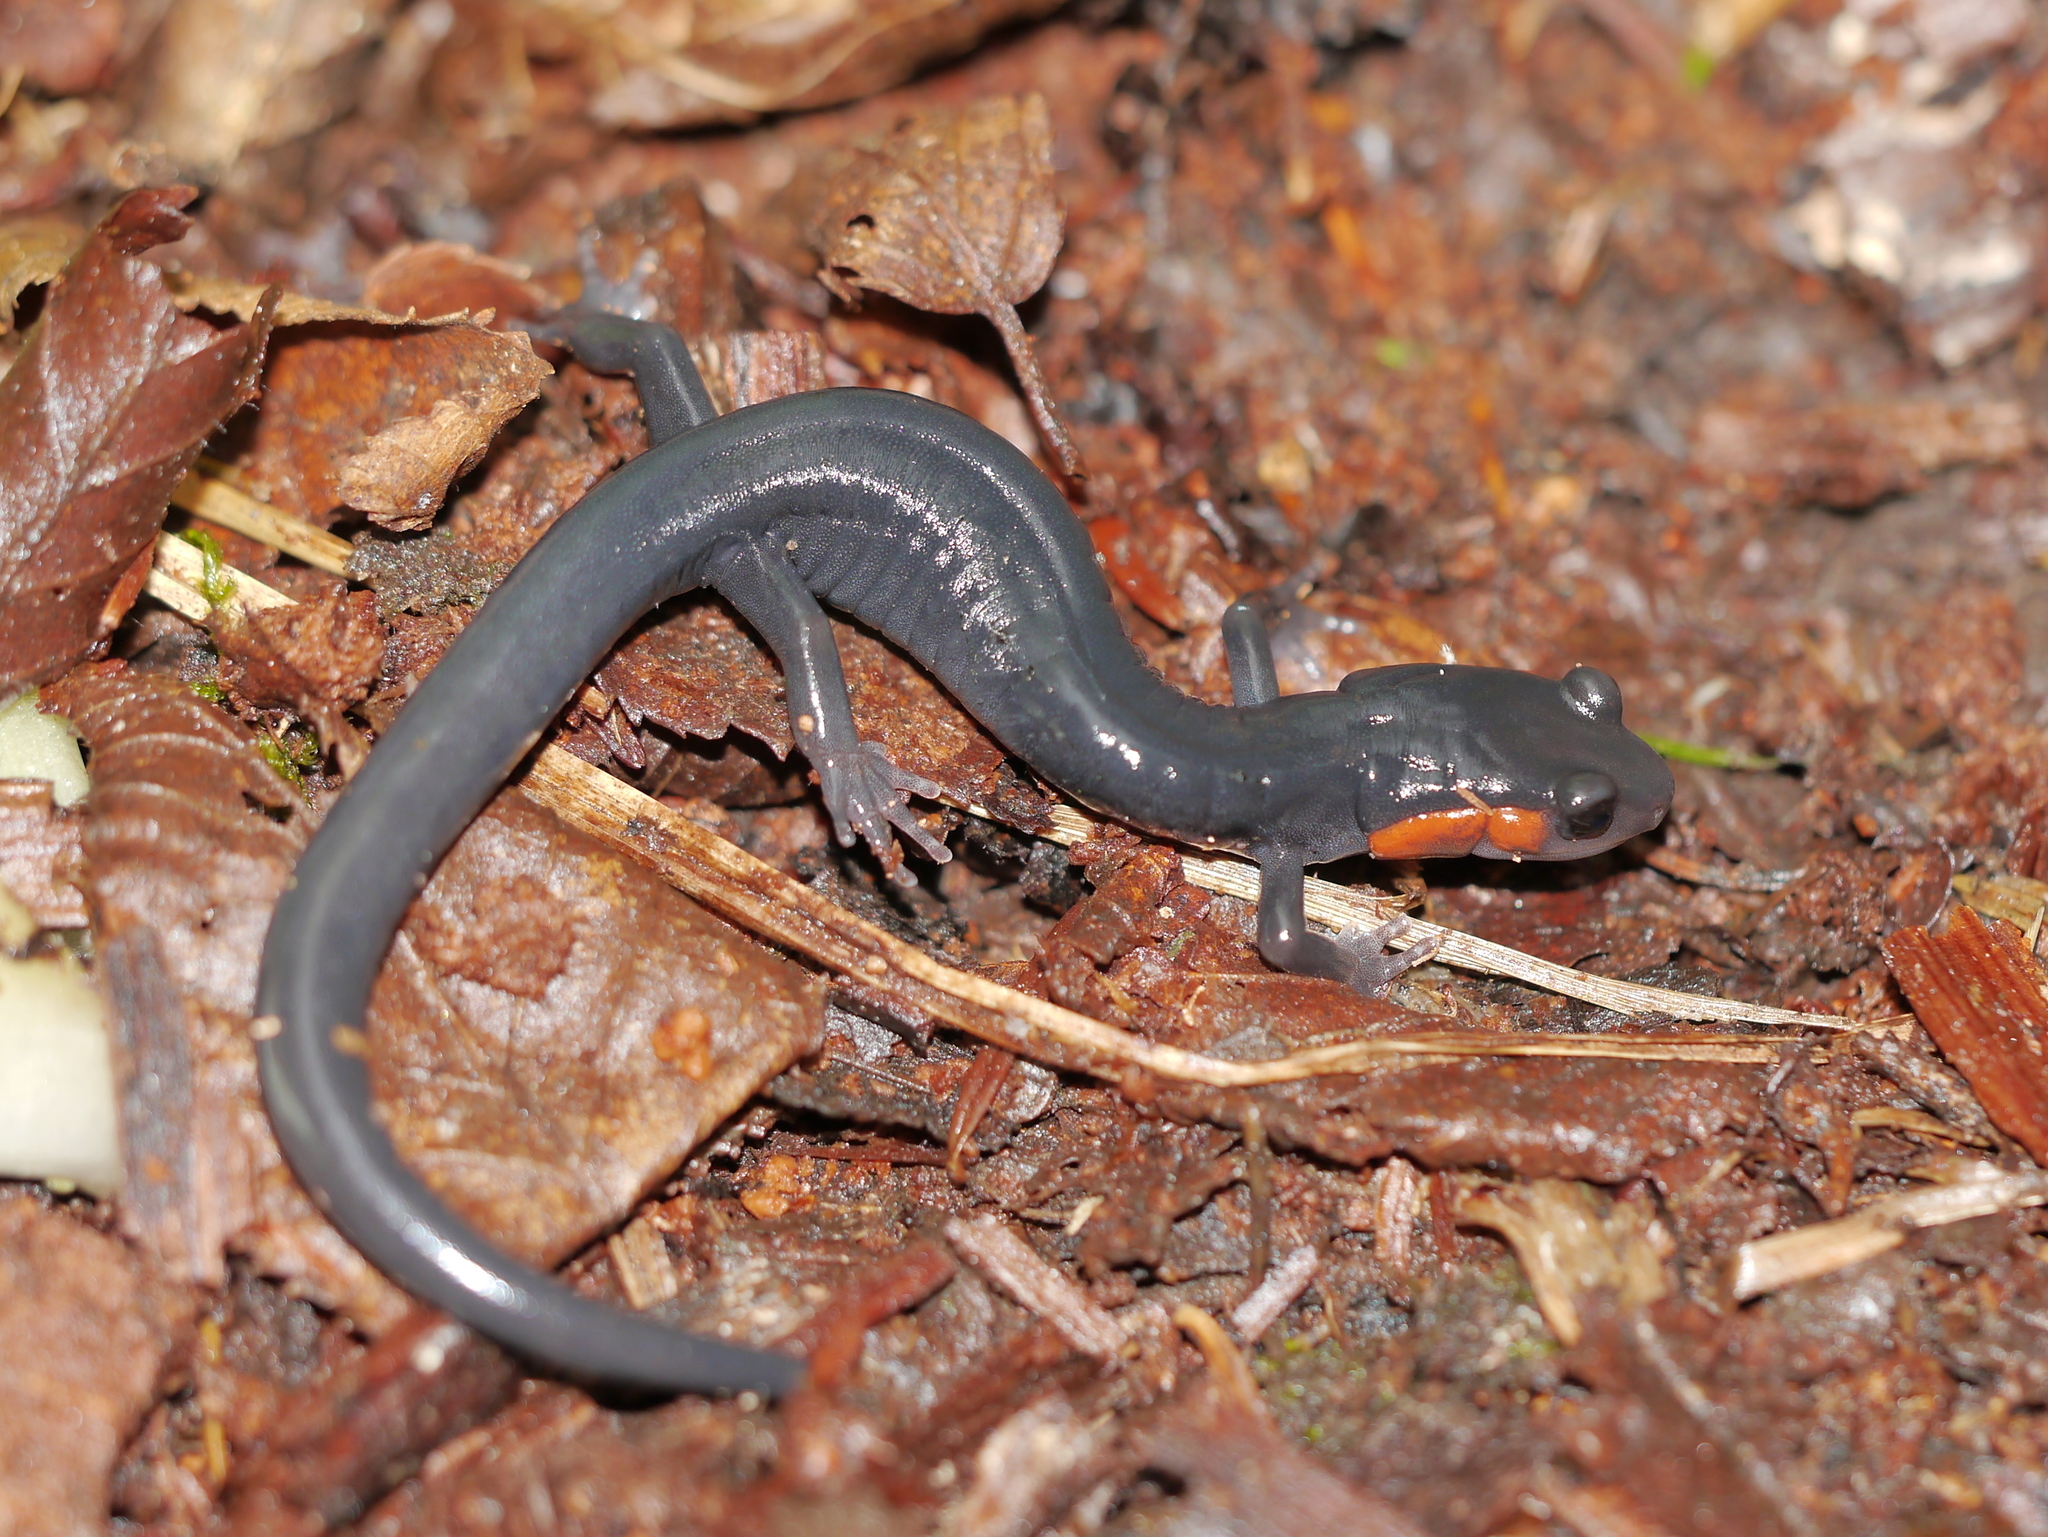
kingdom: Animalia
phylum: Chordata
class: Amphibia
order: Caudata
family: Plethodontidae
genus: Plethodon
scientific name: Plethodon jordani
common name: Red-cheeked salamander
